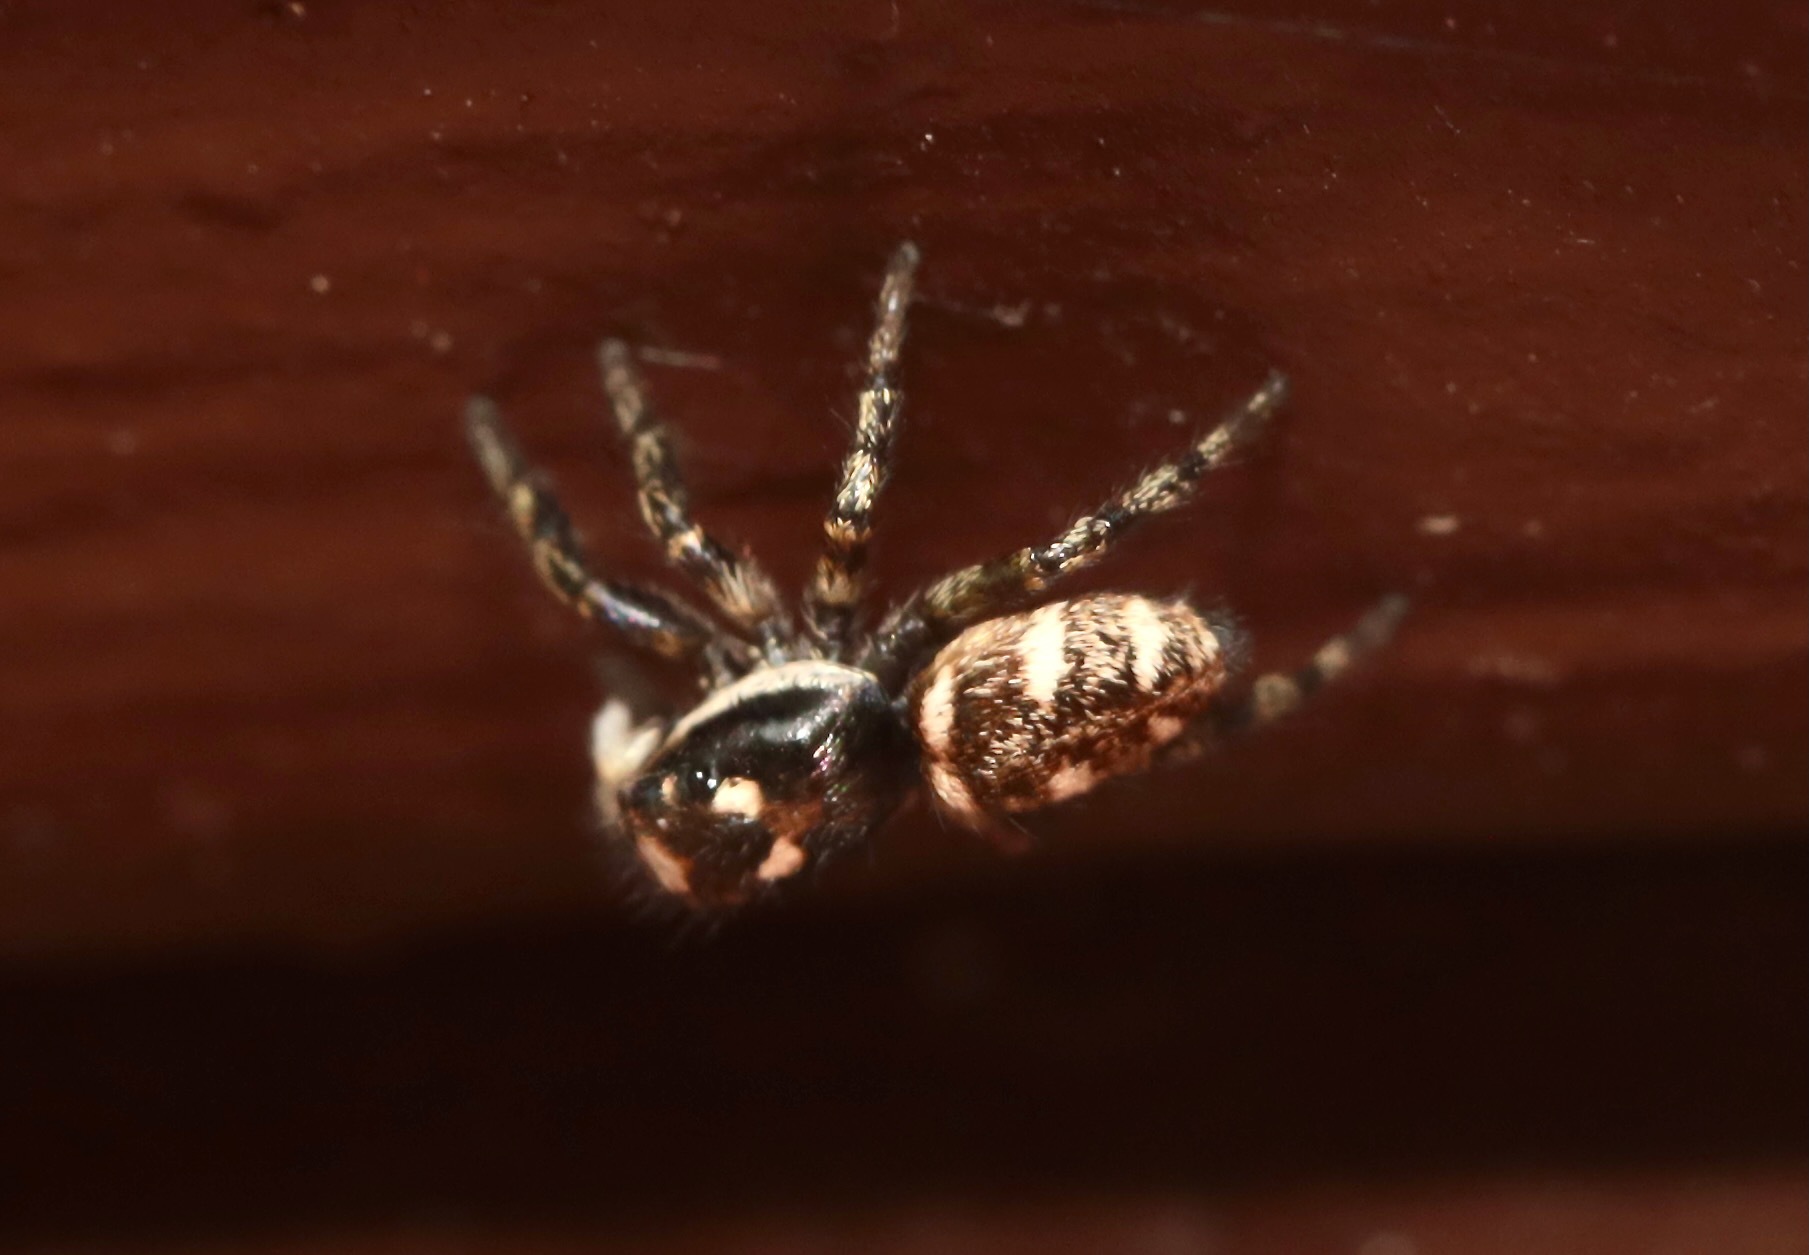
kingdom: Animalia
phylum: Arthropoda
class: Arachnida
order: Araneae
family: Salticidae
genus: Salticus
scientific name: Salticus scenicus
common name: Zebra jumper
